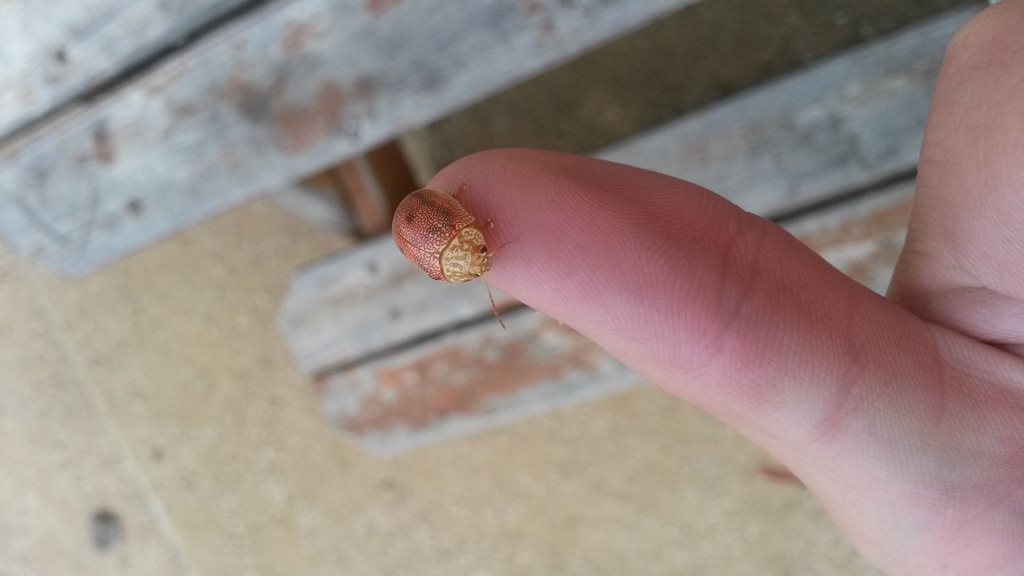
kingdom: Animalia
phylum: Arthropoda
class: Insecta
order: Coleoptera
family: Chrysomelidae
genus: Paropsis
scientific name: Paropsis
